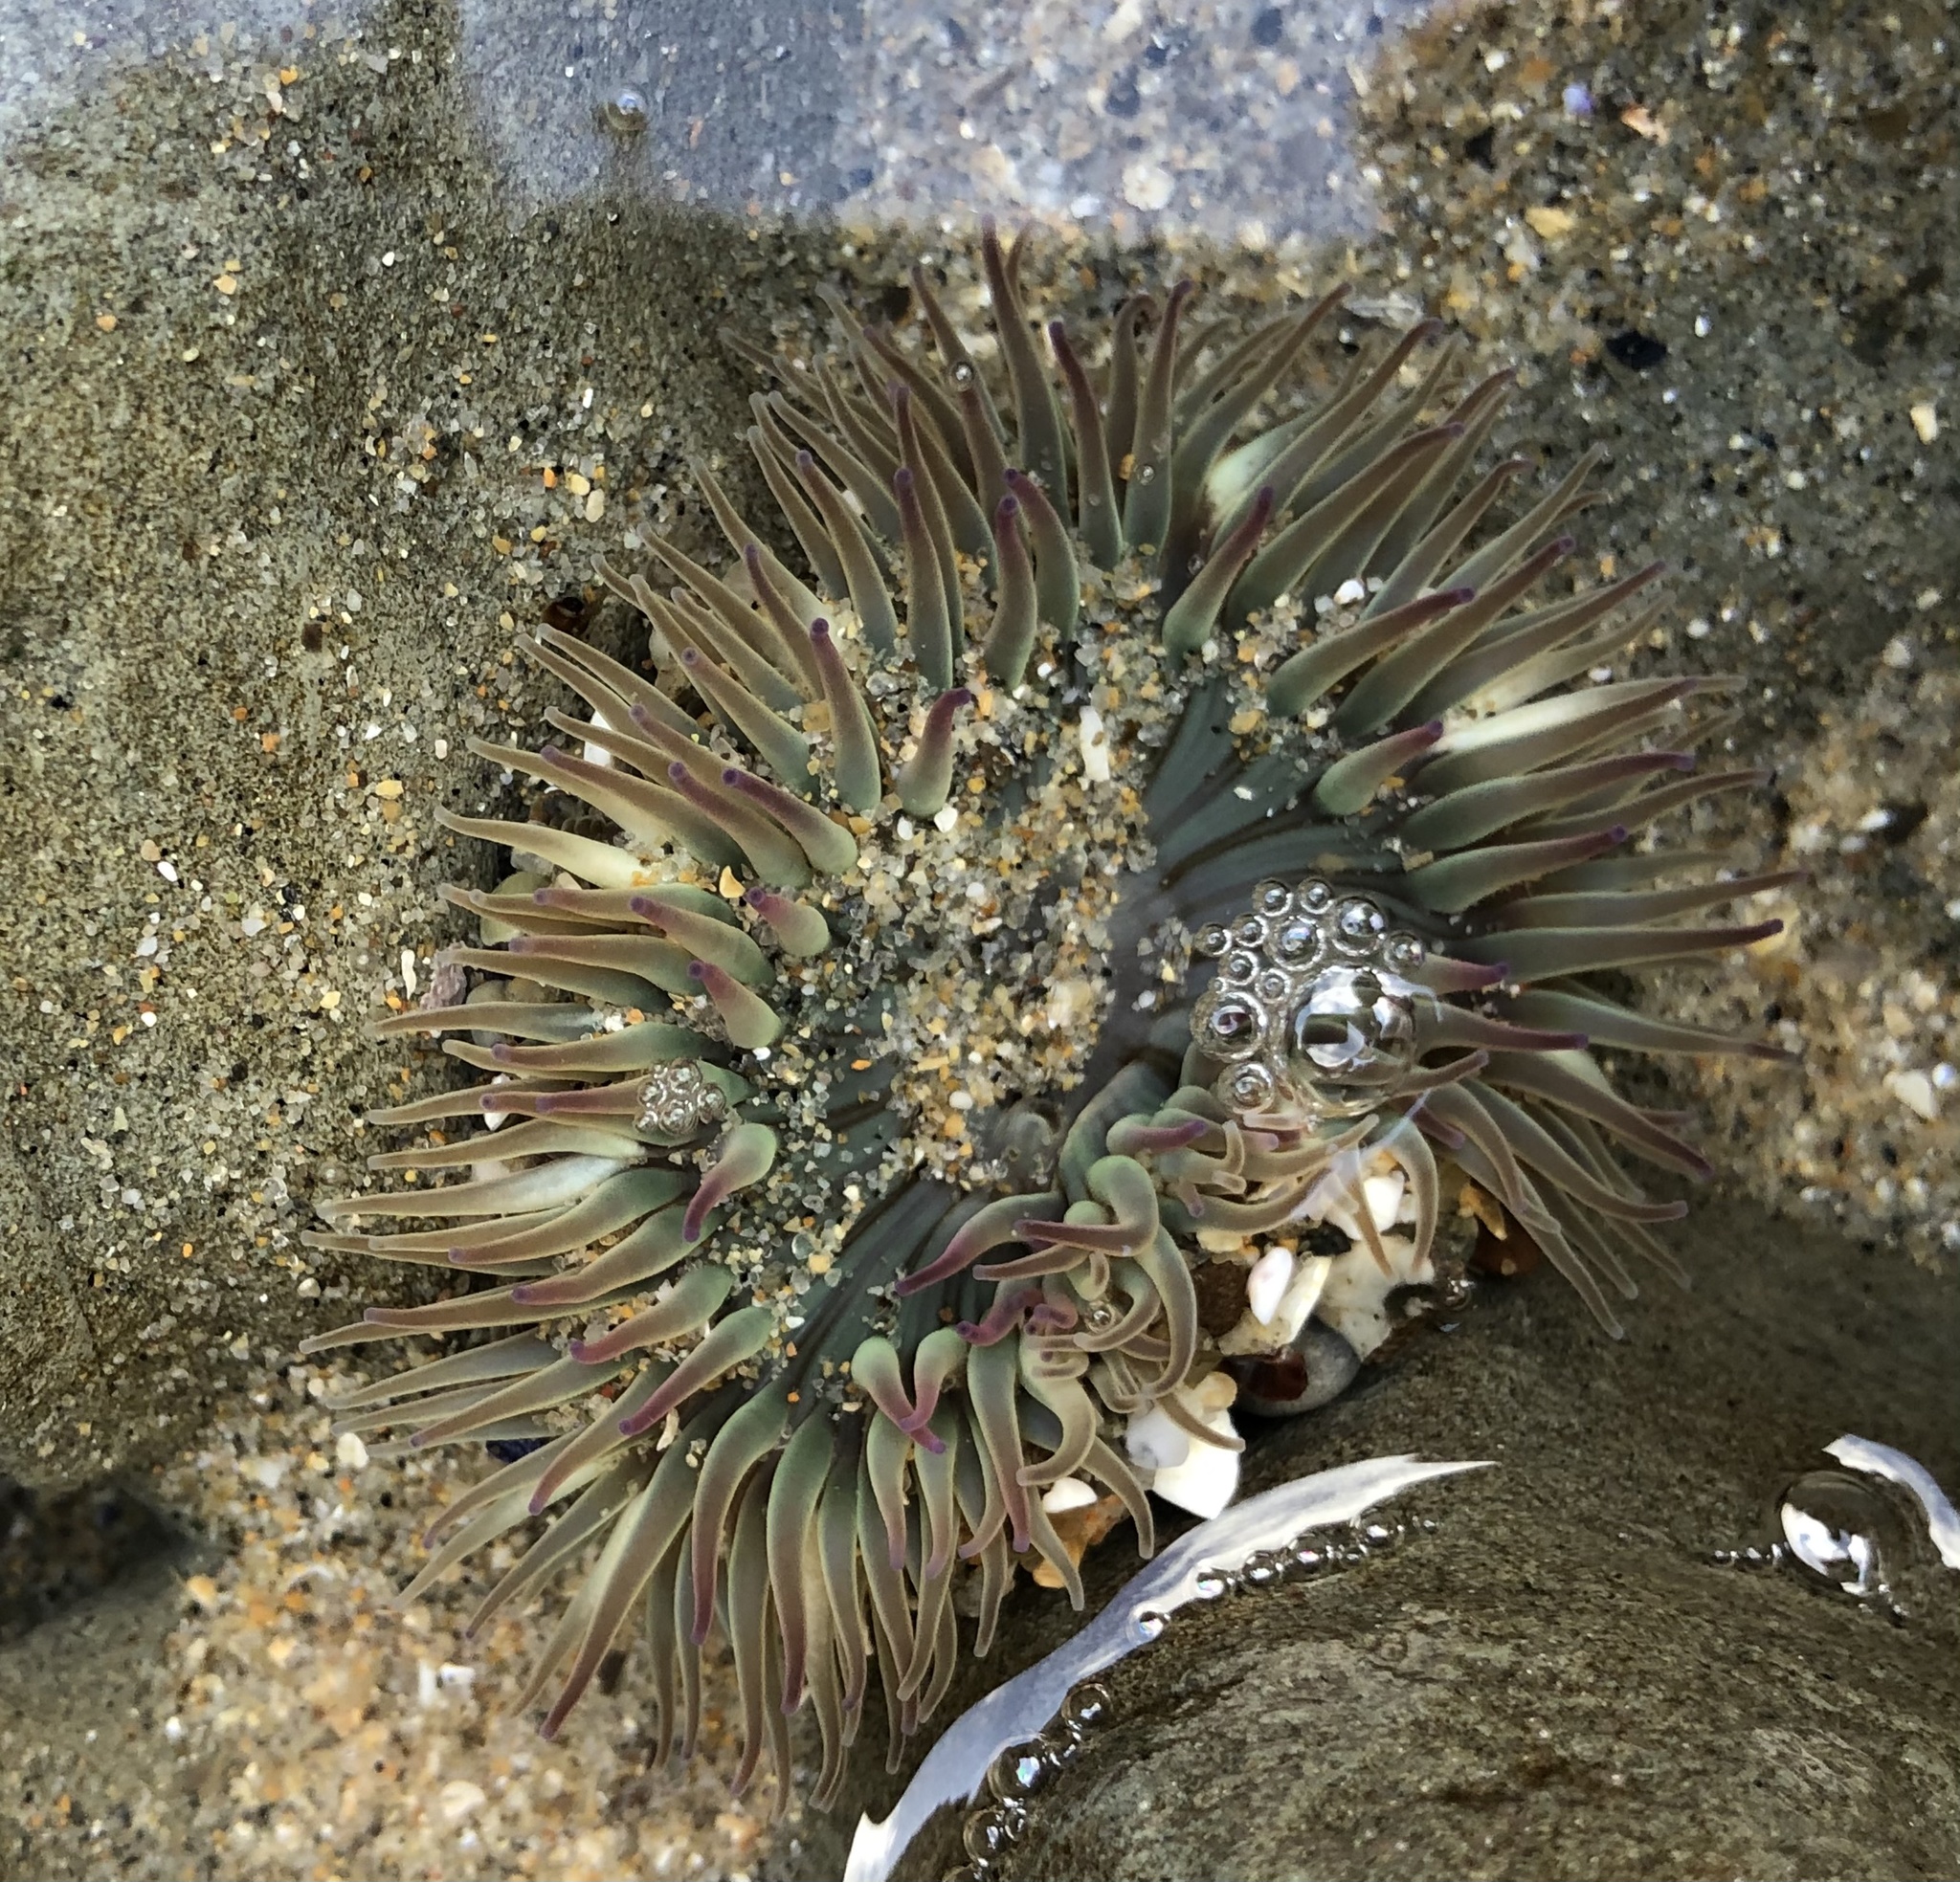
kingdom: Animalia
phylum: Cnidaria
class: Anthozoa
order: Actiniaria
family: Actiniidae
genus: Anthopleura
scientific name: Anthopleura elegantissima
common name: Clonal anemone
